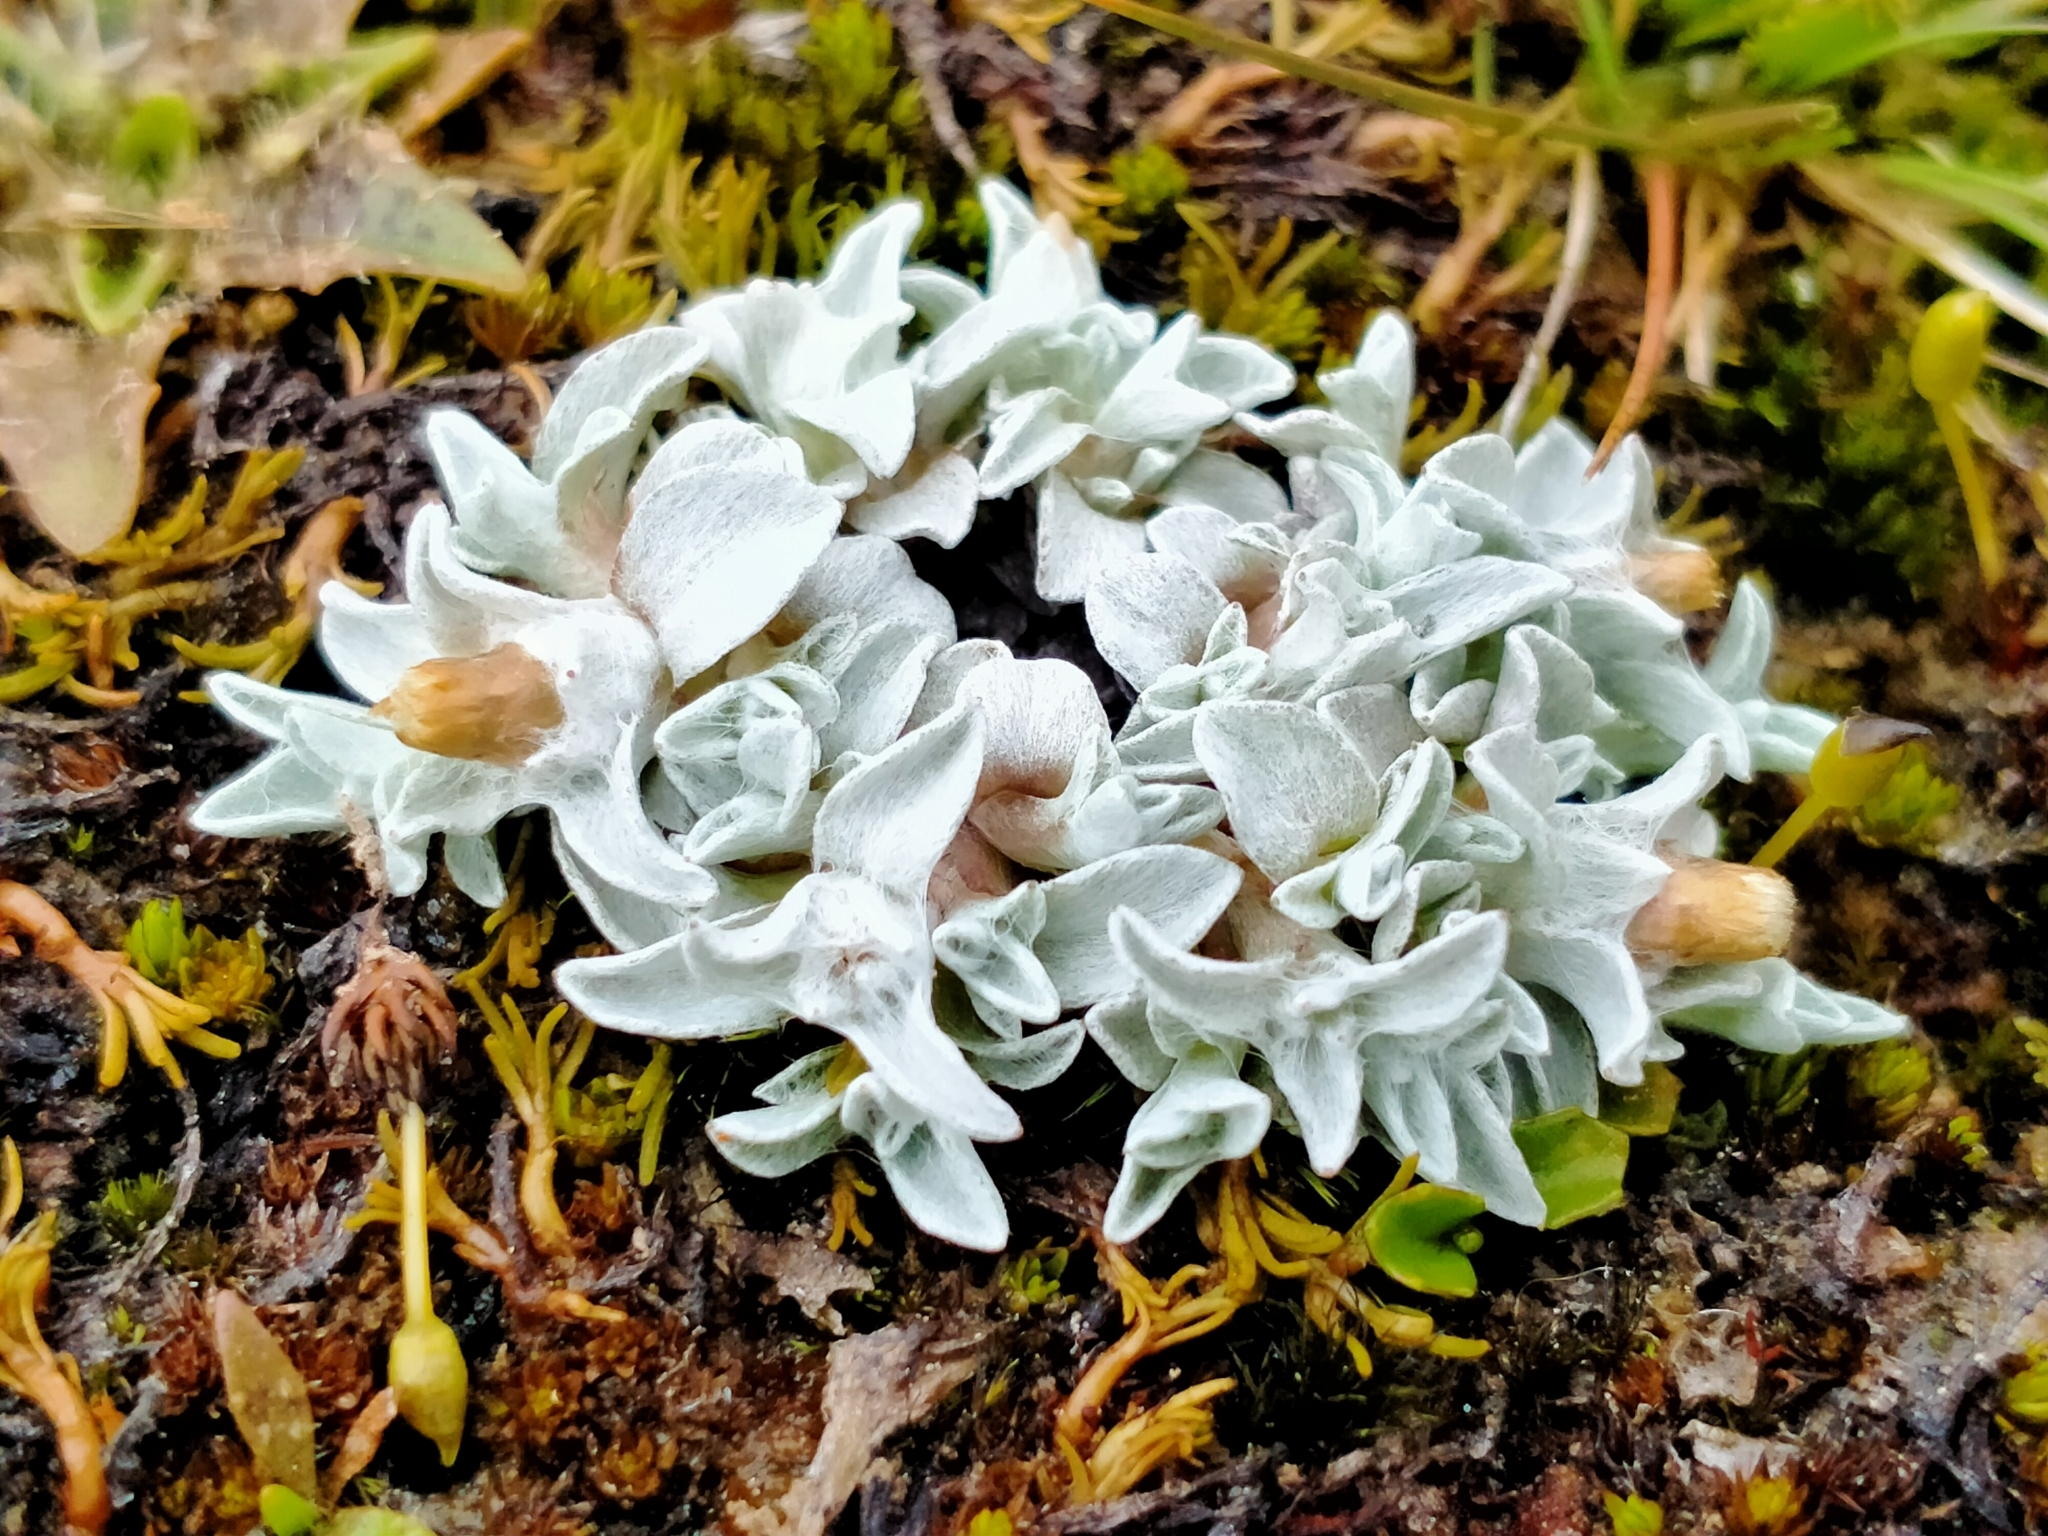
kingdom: Plantae
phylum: Tracheophyta
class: Magnoliopsida
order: Asterales
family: Asteraceae
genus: Argyrotegium
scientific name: Argyrotegium mackayi
